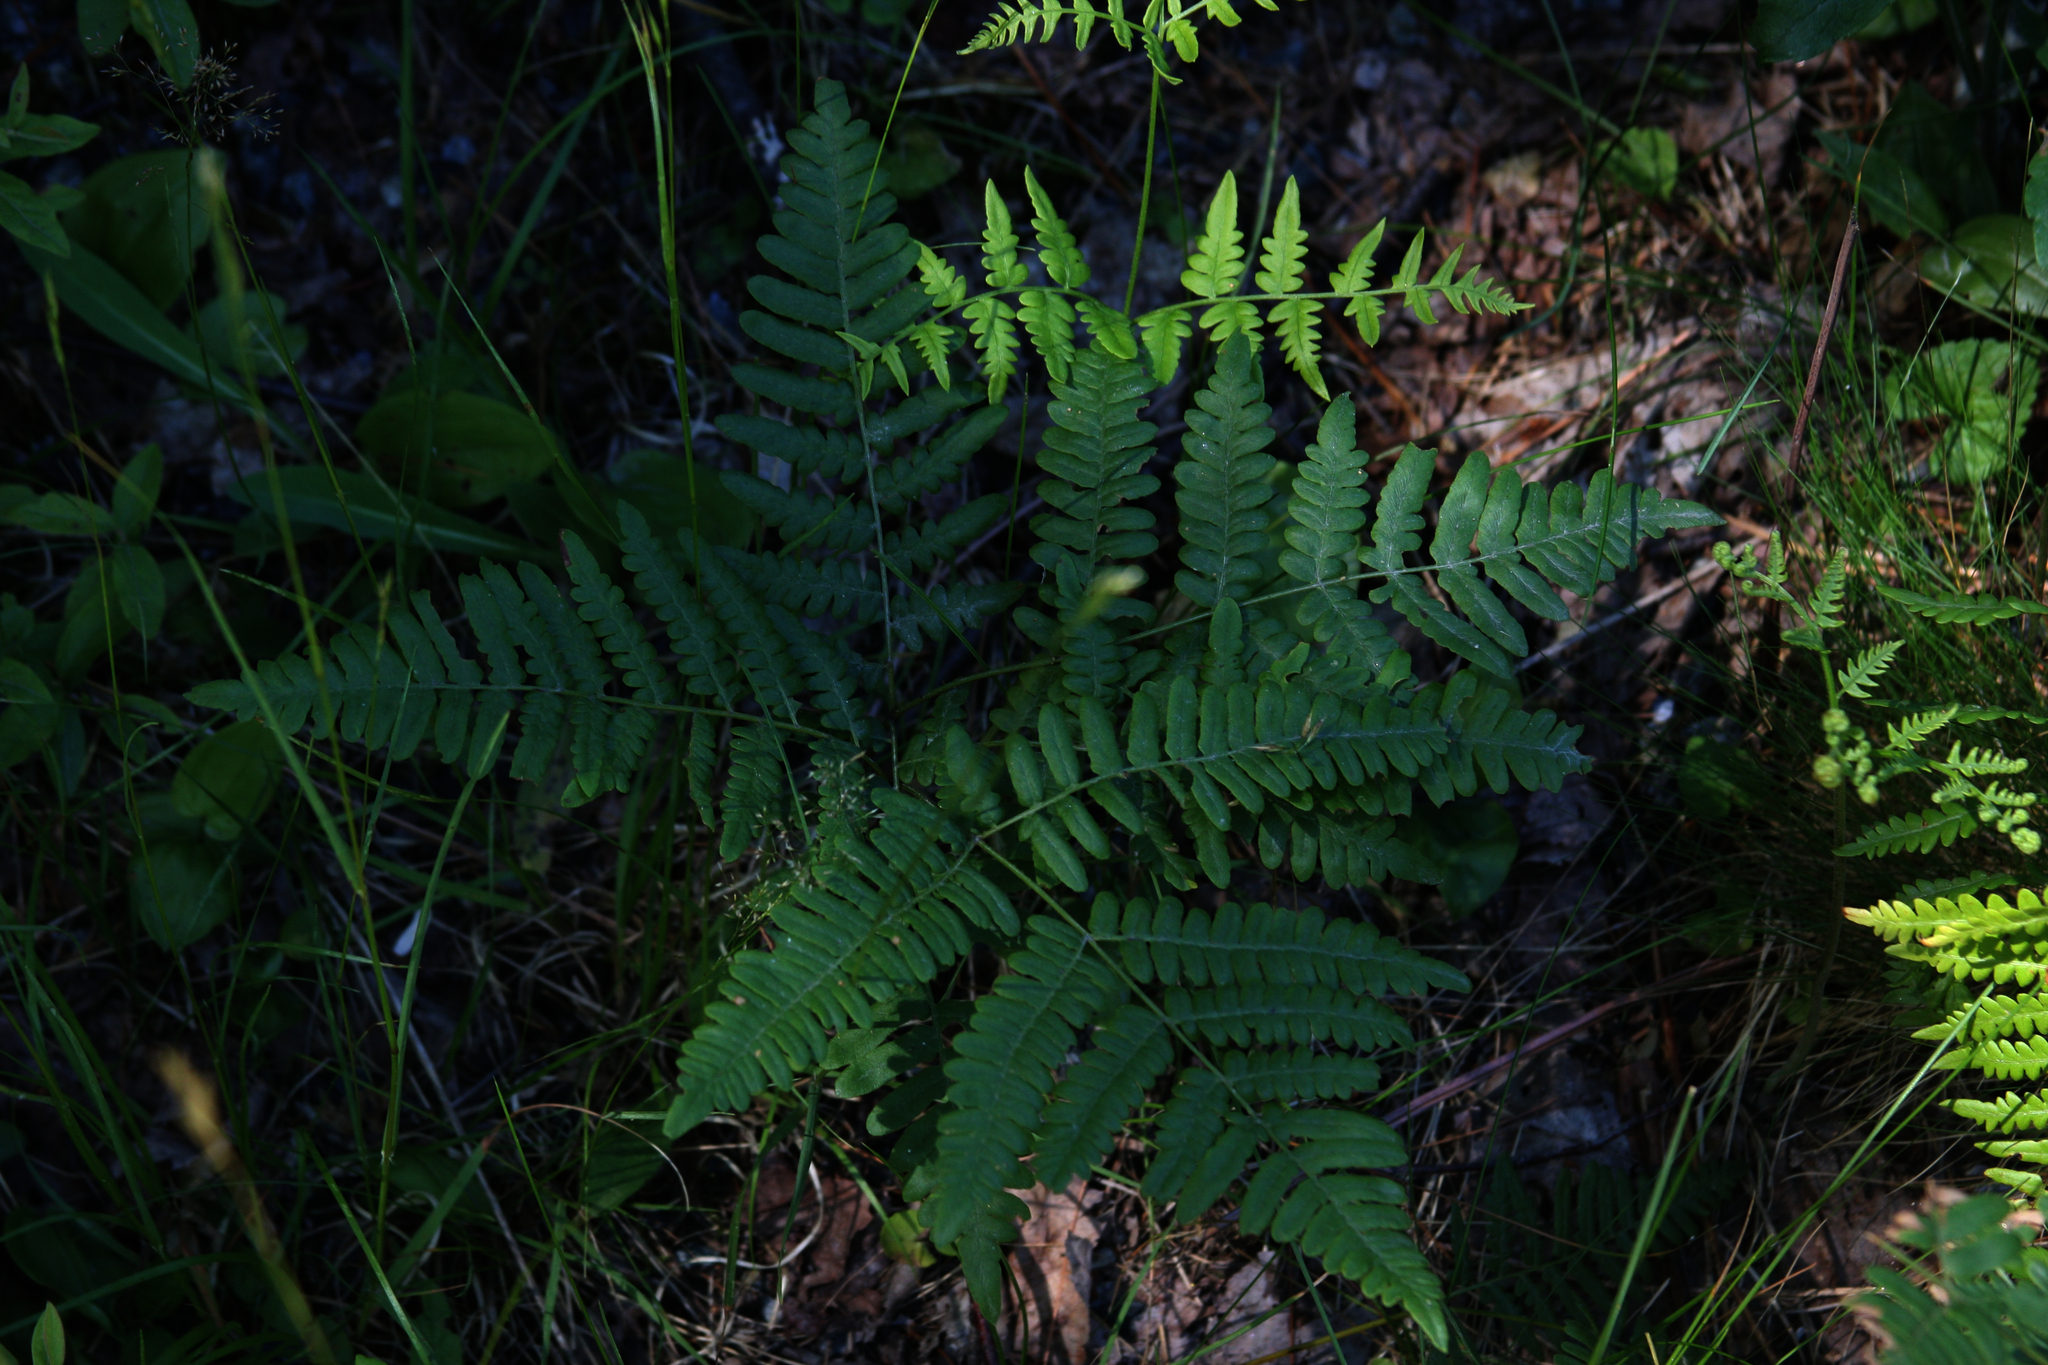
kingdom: Plantae
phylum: Tracheophyta
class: Polypodiopsida
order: Polypodiales
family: Dennstaedtiaceae
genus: Pteridium
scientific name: Pteridium aquilinum
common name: Bracken
